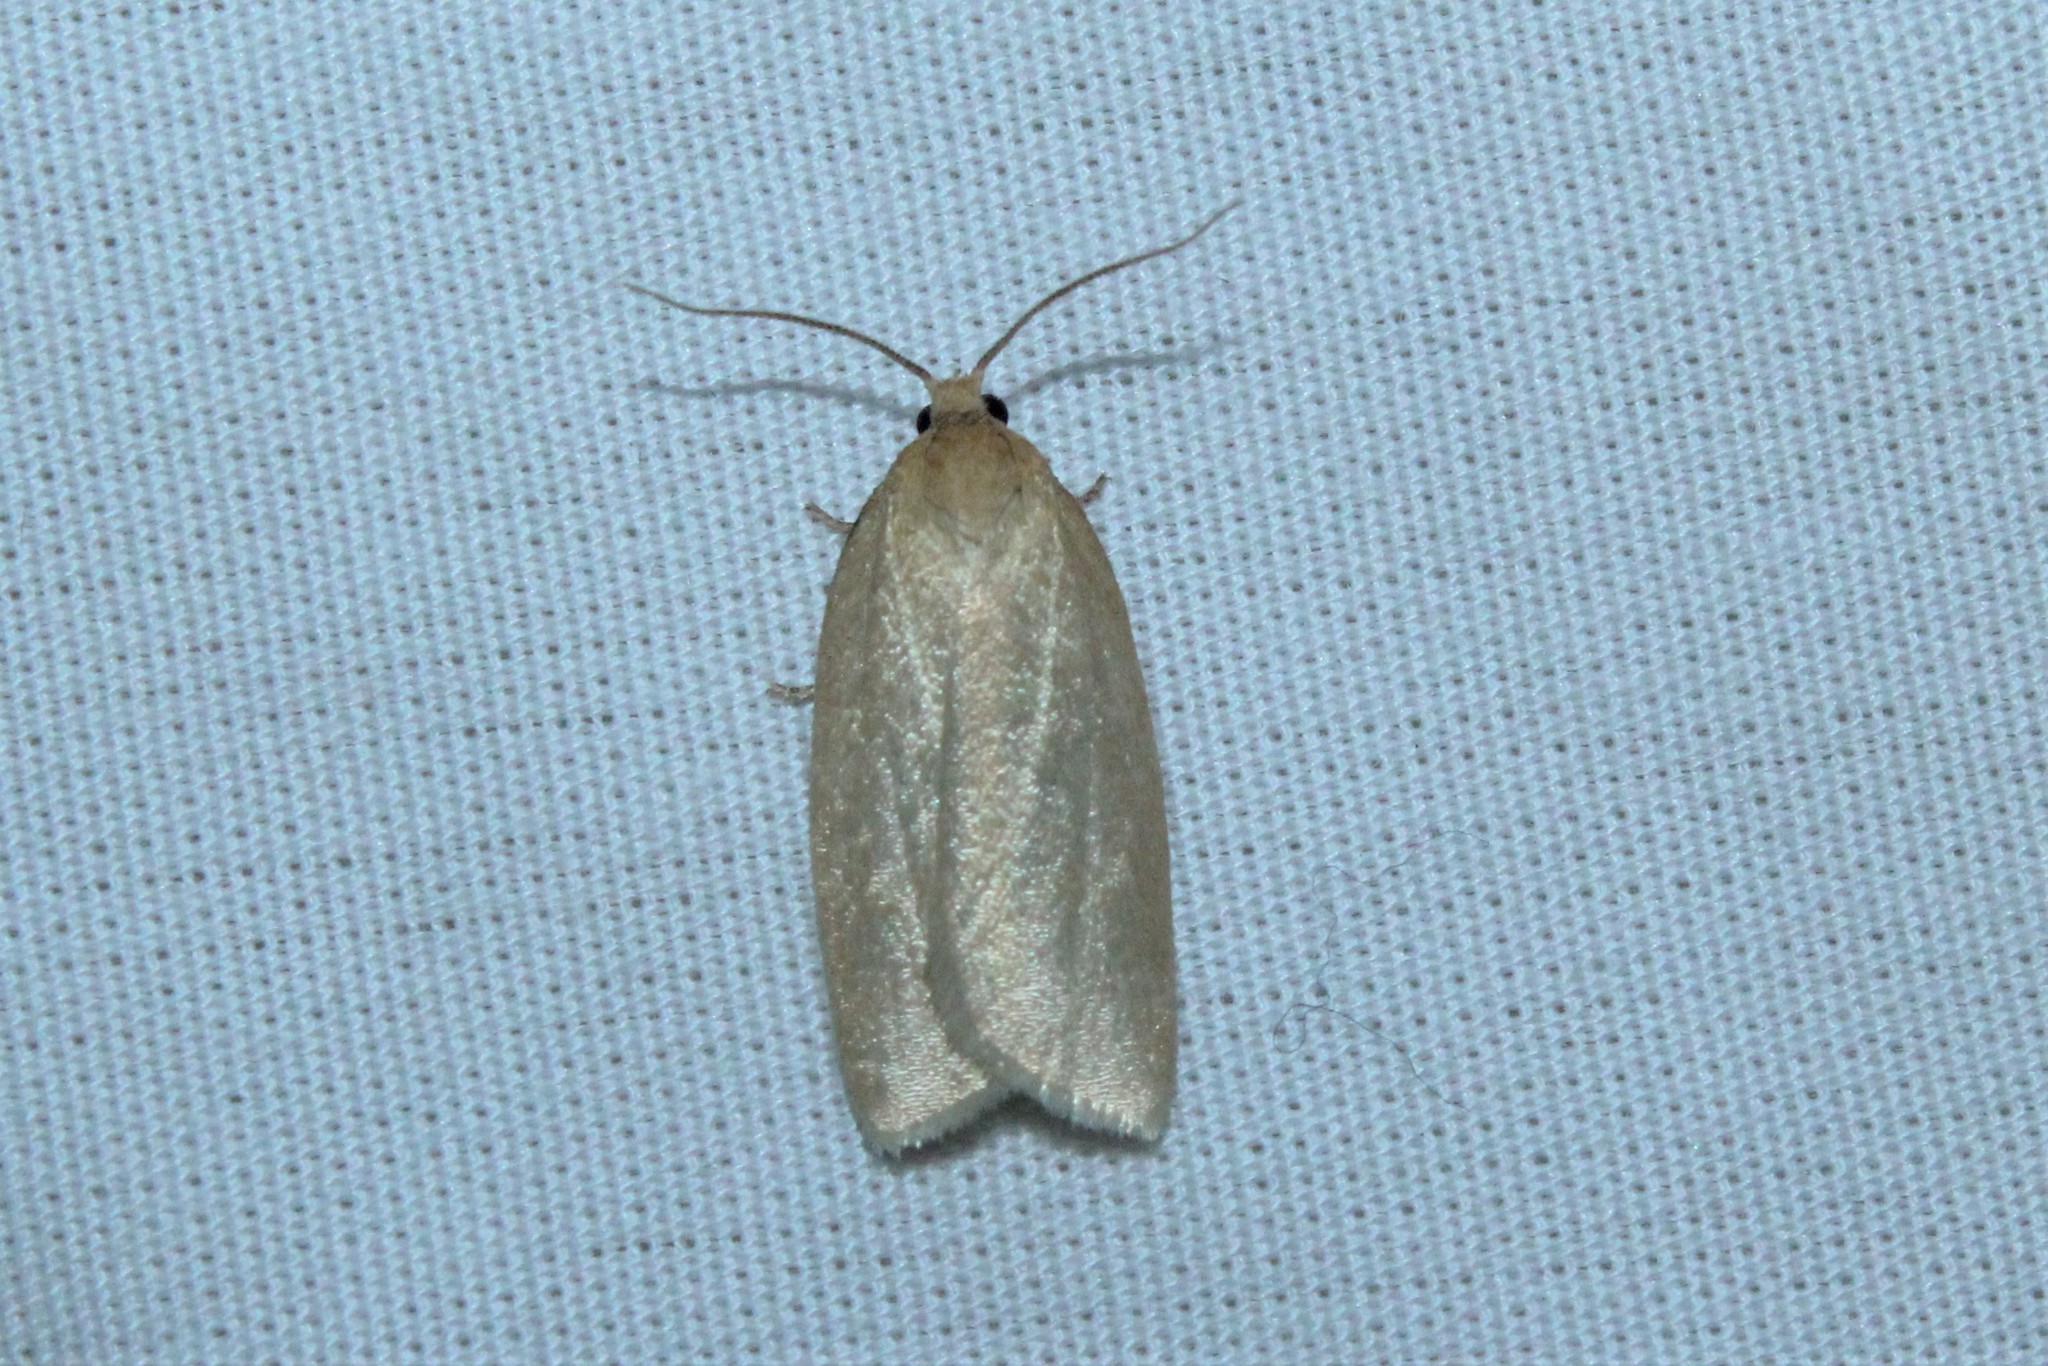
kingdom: Animalia
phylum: Arthropoda
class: Insecta
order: Lepidoptera
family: Tortricidae
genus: Clepsis
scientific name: Clepsis clemensiana
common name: Clemens' clepsis moth
